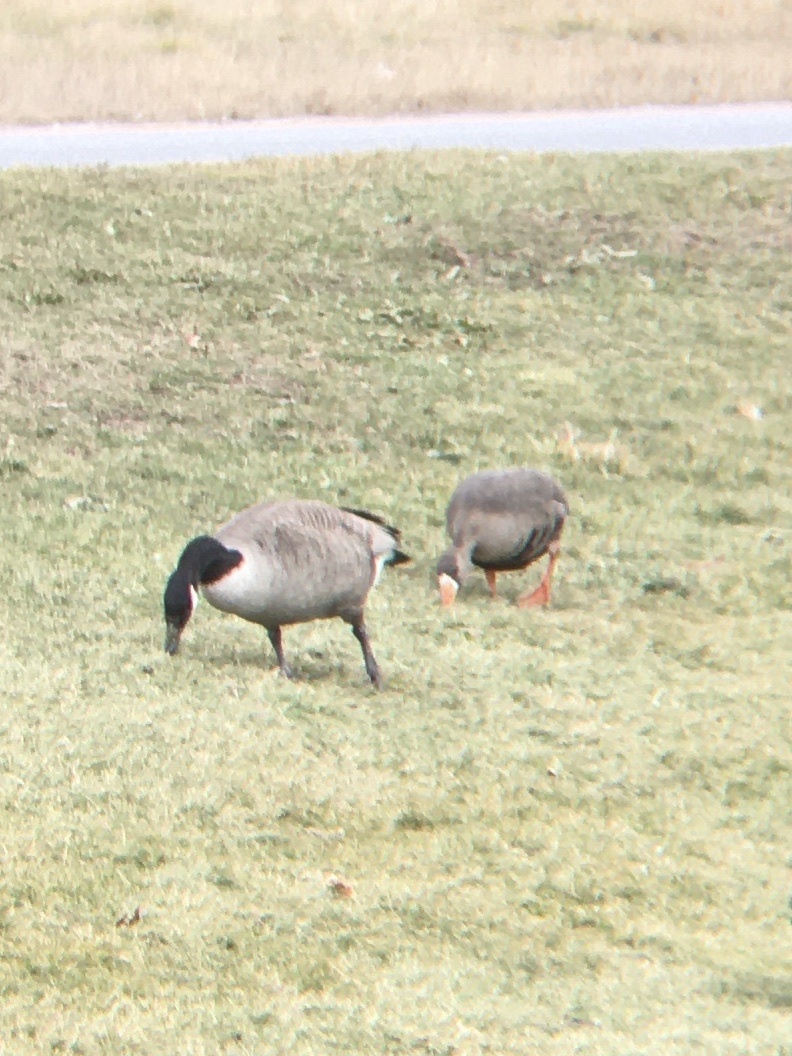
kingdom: Animalia
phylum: Chordata
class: Aves
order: Anseriformes
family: Anatidae
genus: Anser
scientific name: Anser albifrons
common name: Greater white-fronted goose
